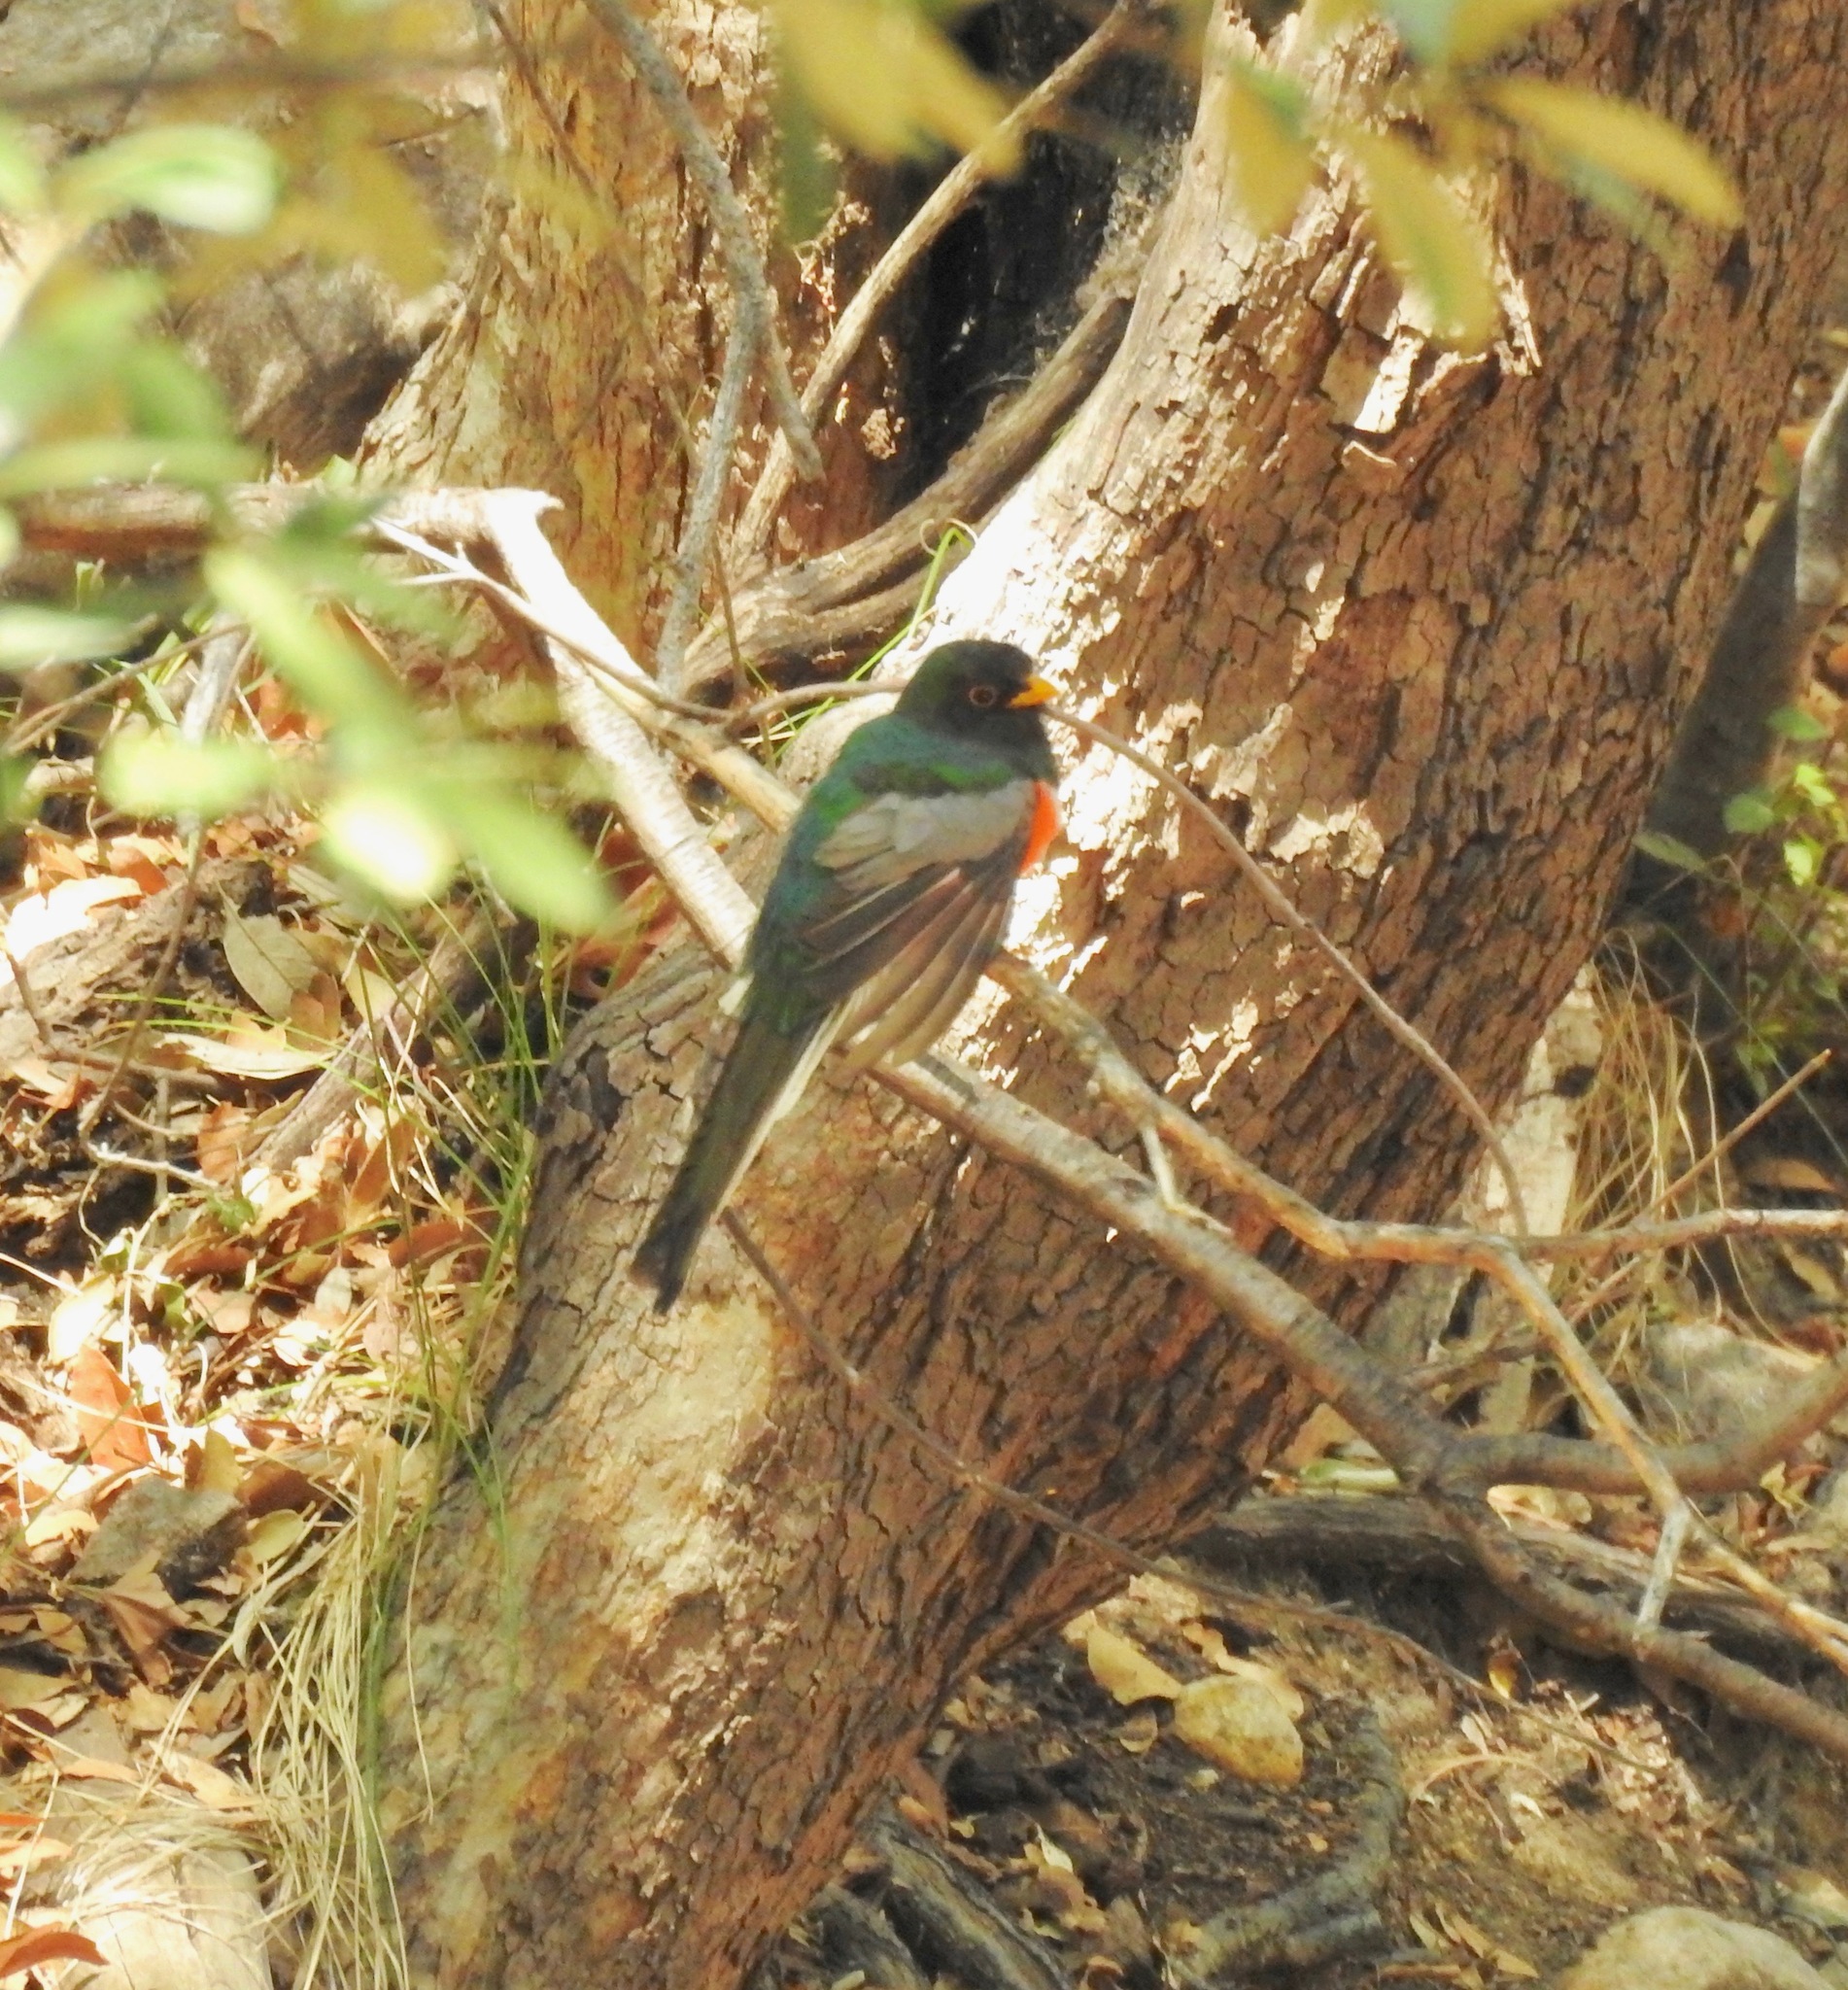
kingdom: Animalia
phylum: Chordata
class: Aves
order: Trogoniformes
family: Trogonidae
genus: Trogon
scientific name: Trogon elegans
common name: Elegant trogon
